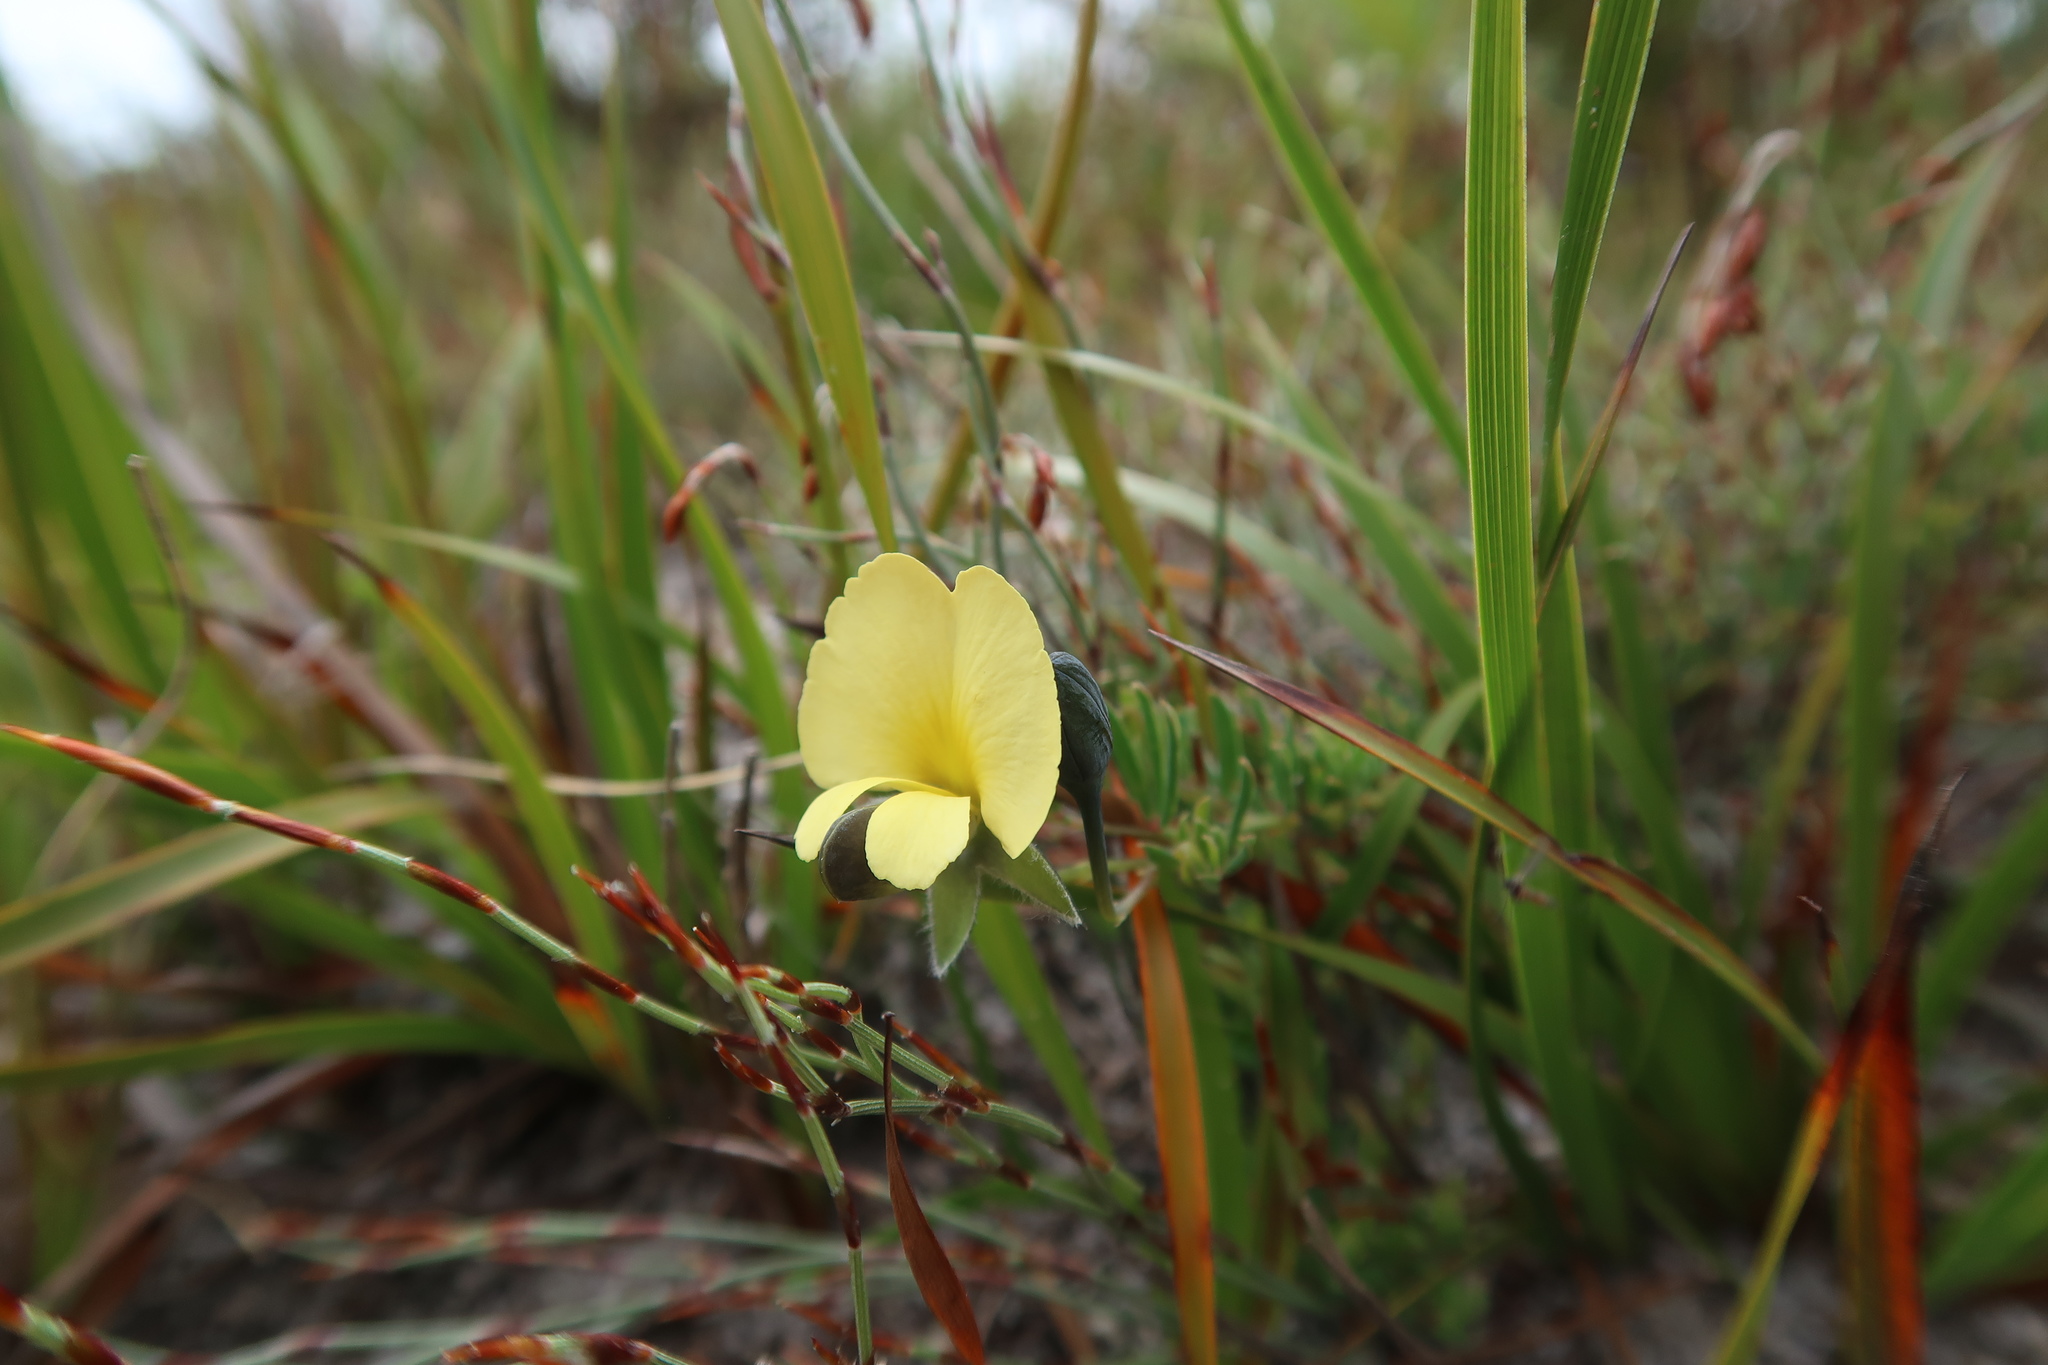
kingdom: Plantae
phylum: Tracheophyta
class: Magnoliopsida
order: Fabales
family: Fabaceae
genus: Gompholobium
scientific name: Gompholobium huegelii
